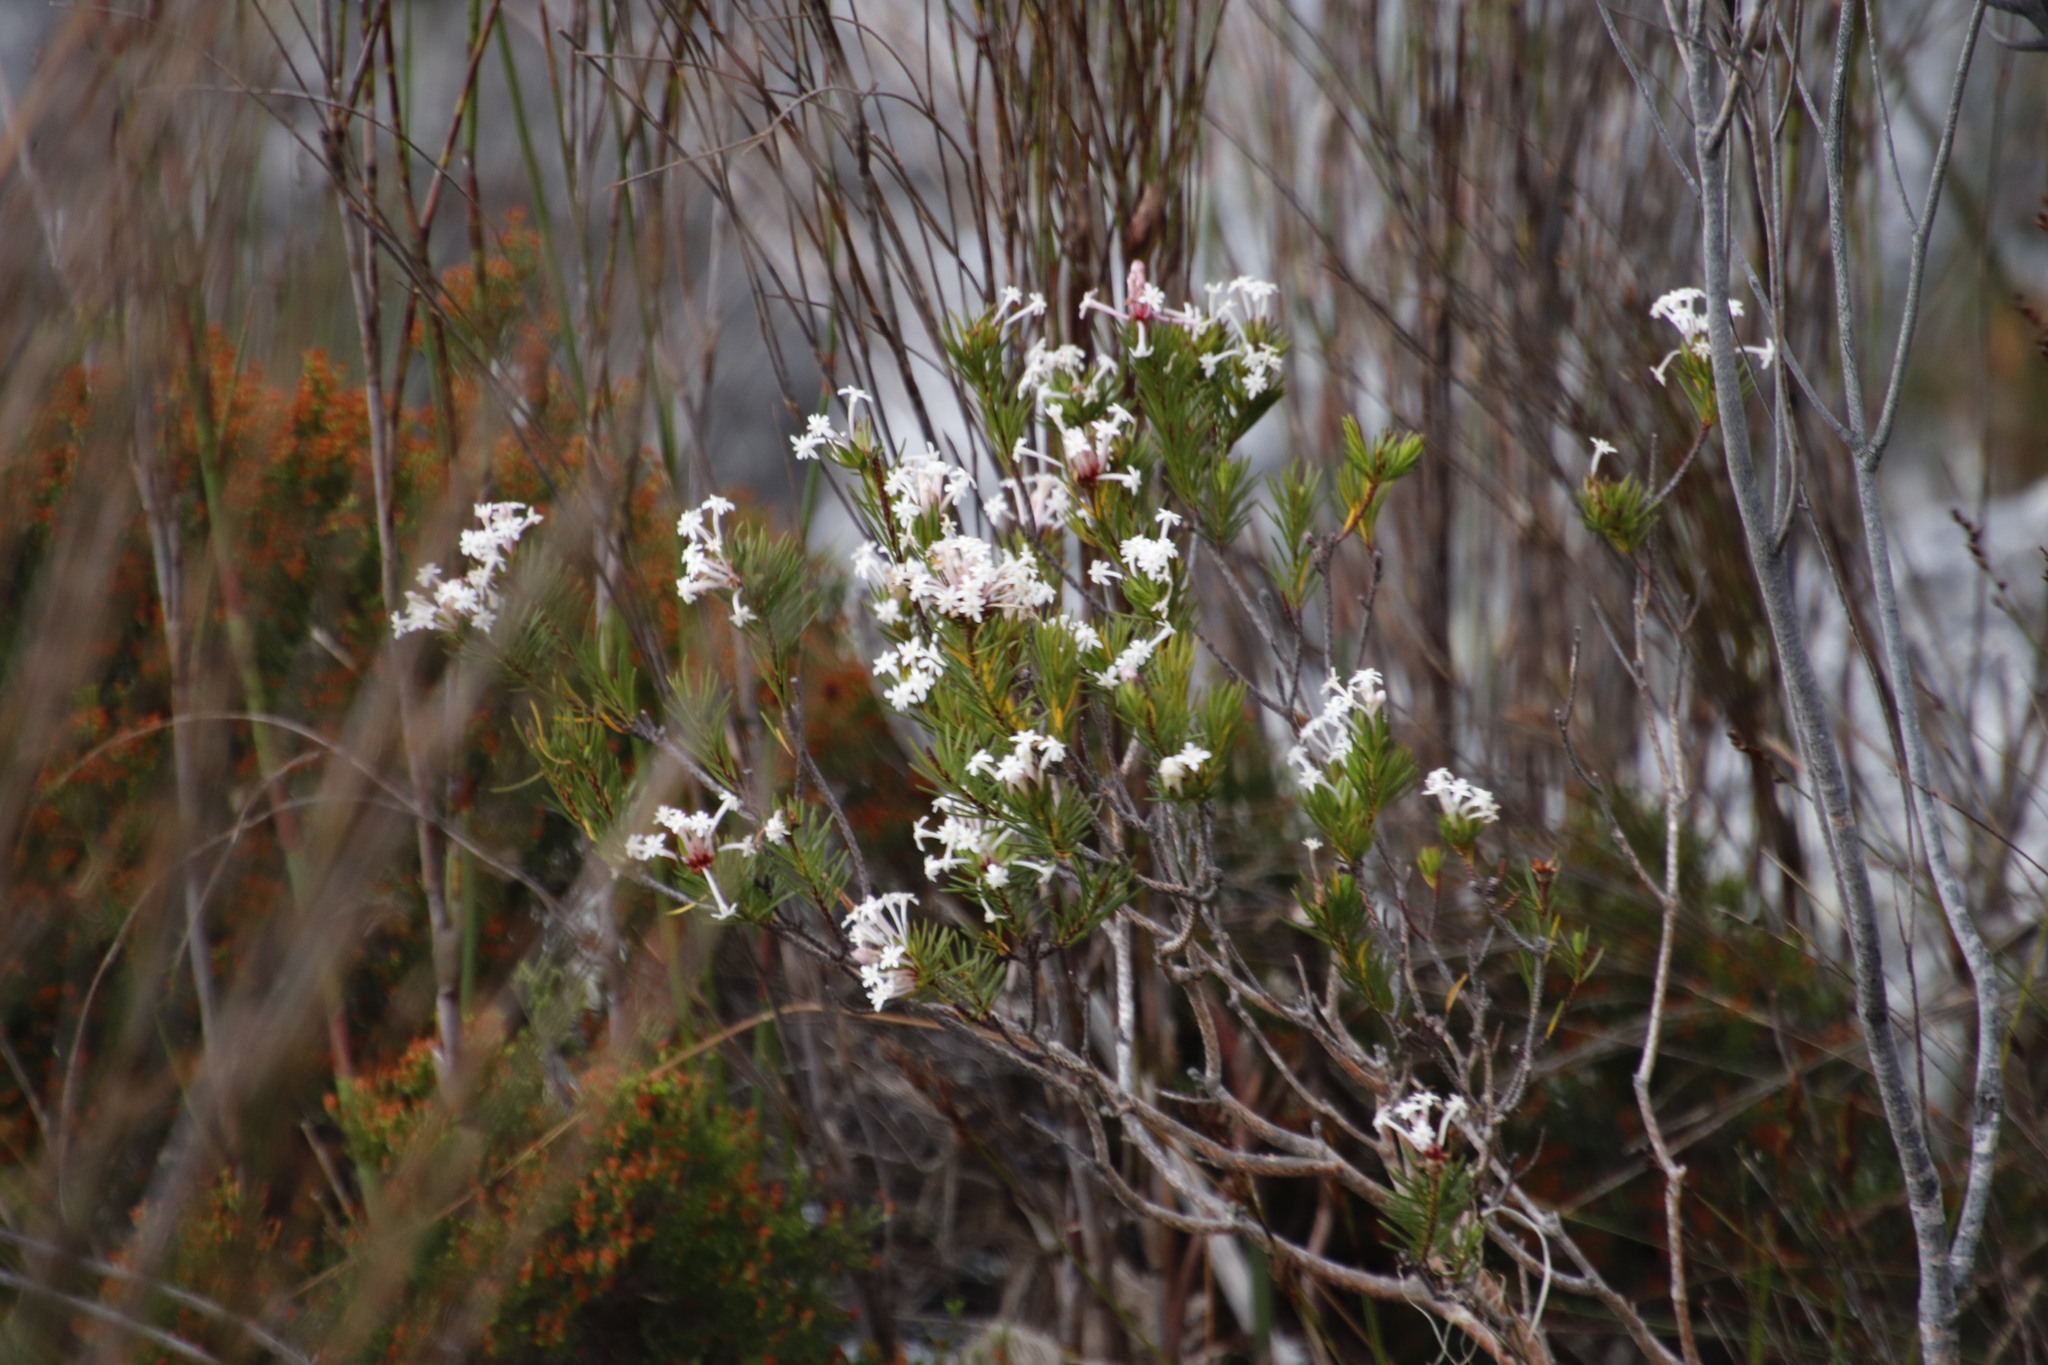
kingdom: Plantae
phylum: Tracheophyta
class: Magnoliopsida
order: Malvales
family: Thymelaeaceae
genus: Gnidia
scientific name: Gnidia pinifolia
